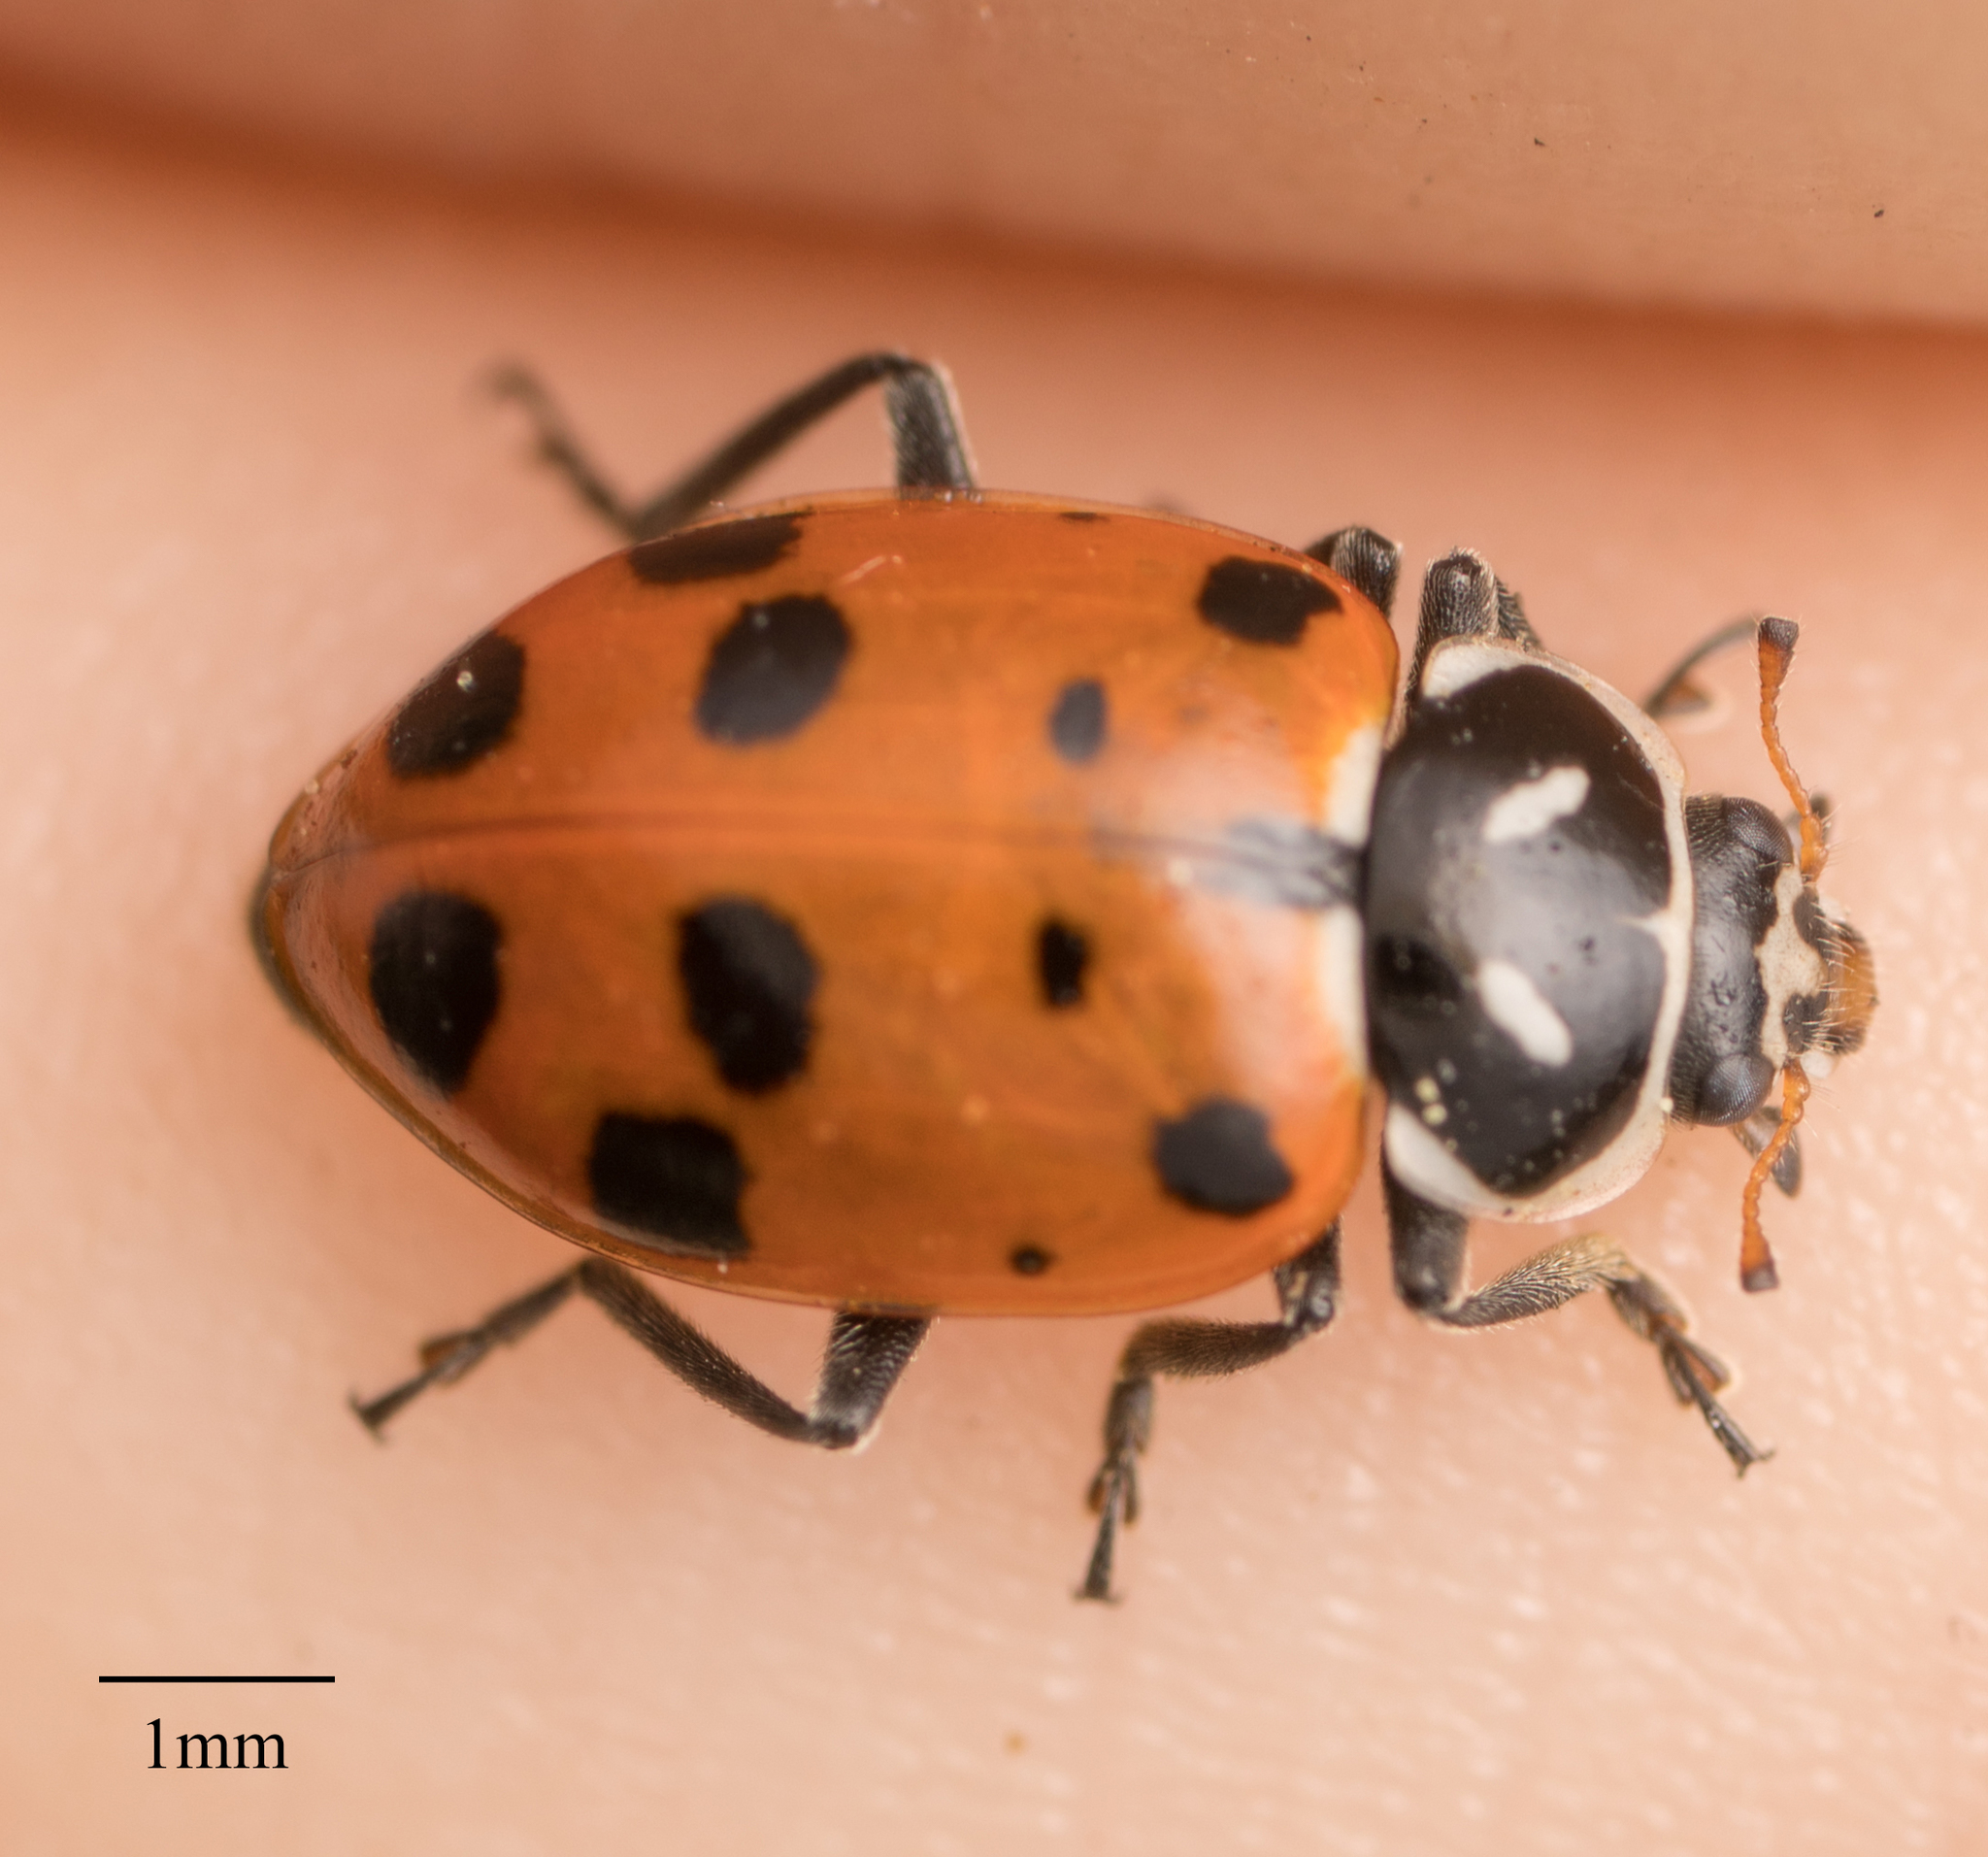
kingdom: Animalia
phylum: Arthropoda
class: Insecta
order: Coleoptera
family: Coccinellidae
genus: Hippodamia
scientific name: Hippodamia convergens
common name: Convergent lady beetle
